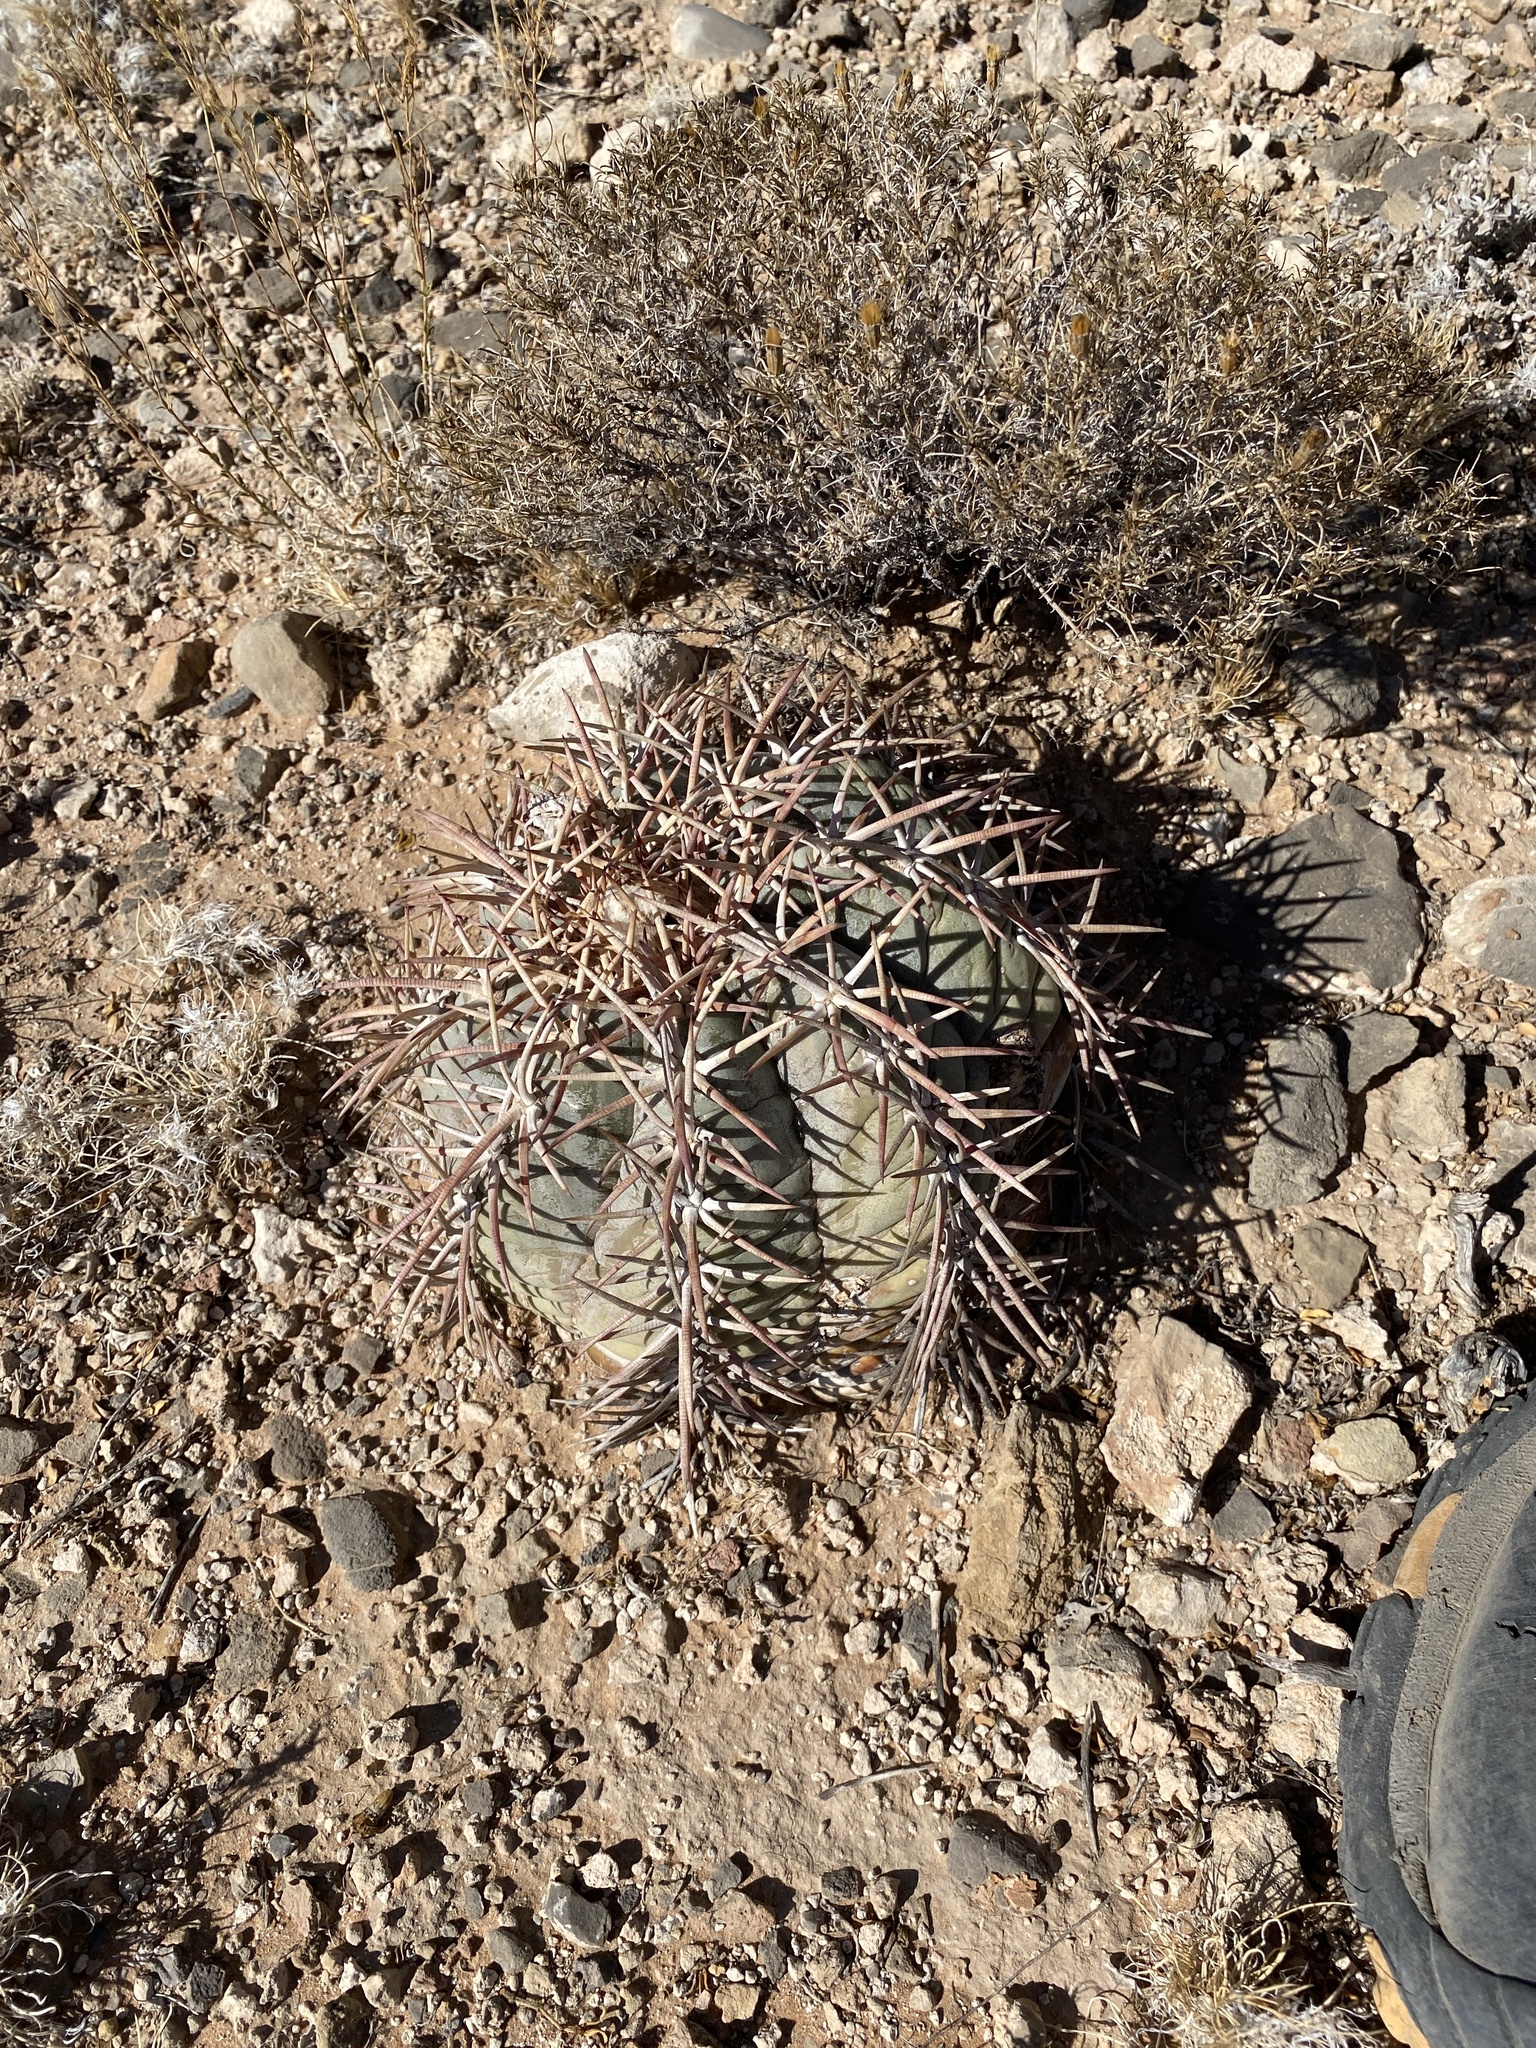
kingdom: Plantae
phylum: Tracheophyta
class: Magnoliopsida
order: Caryophyllales
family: Cactaceae
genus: Echinocactus
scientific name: Echinocactus horizonthalonius
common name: Devilshead
